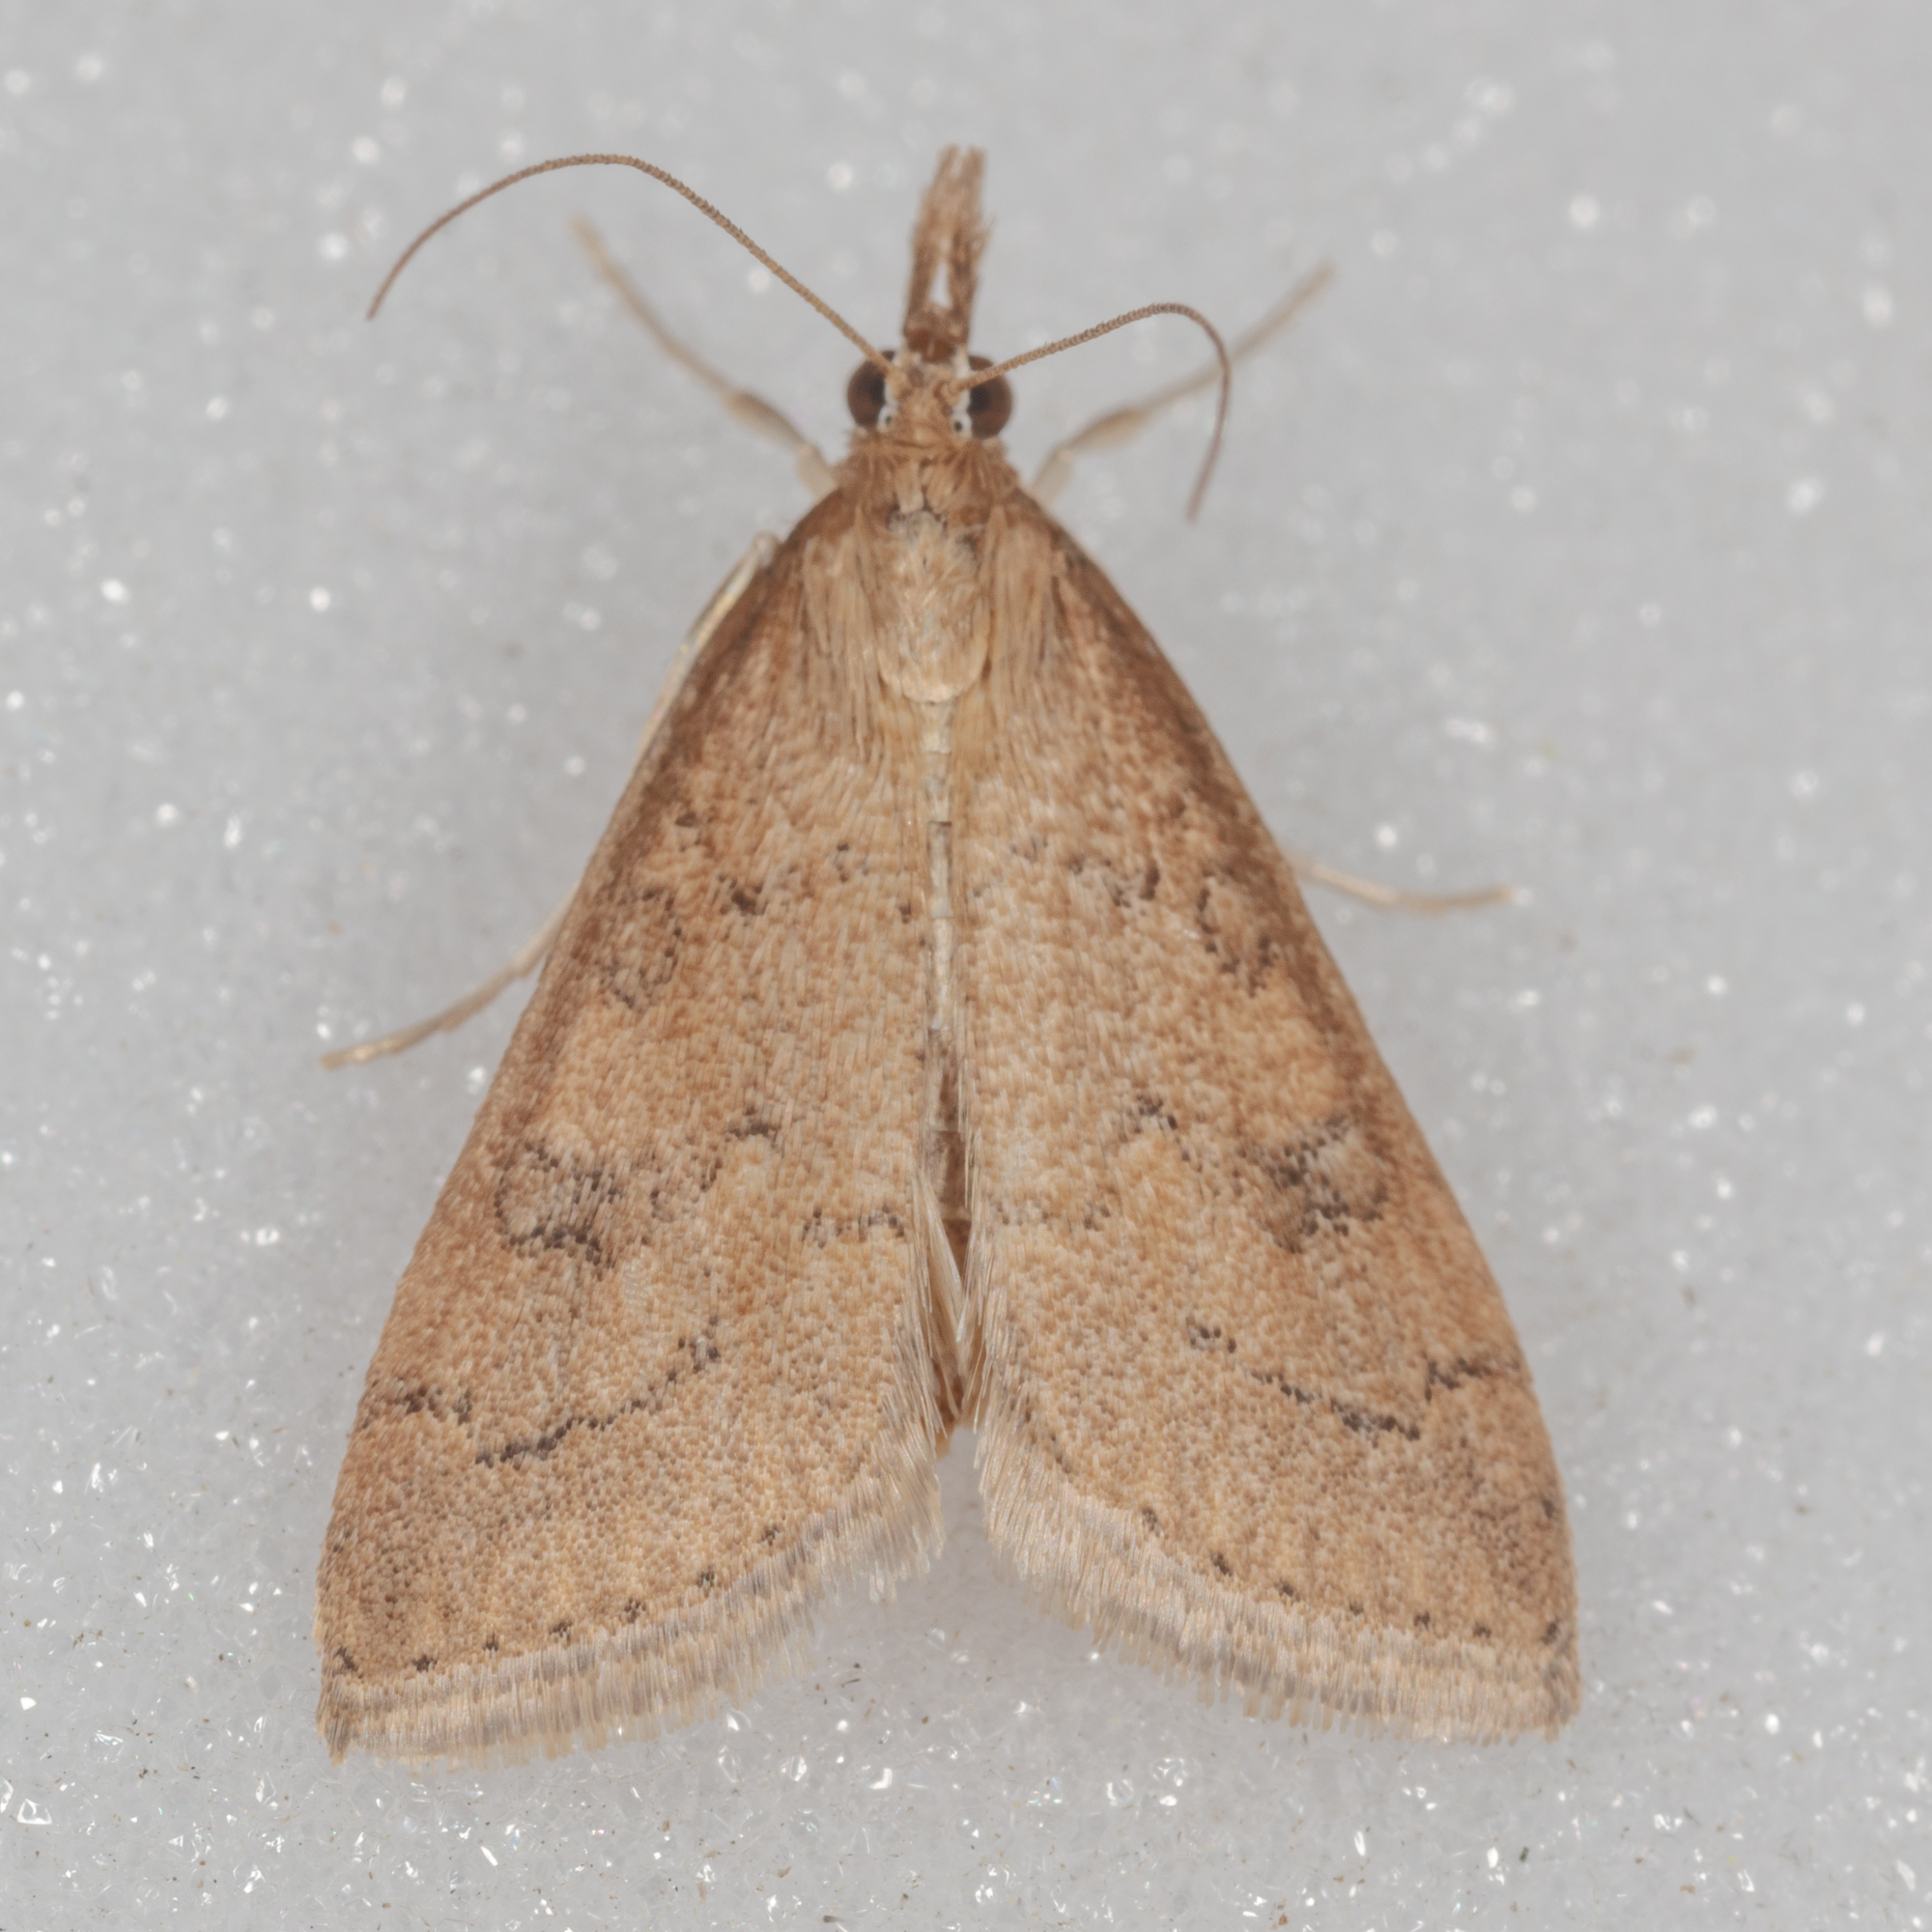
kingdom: Animalia
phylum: Arthropoda
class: Insecta
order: Lepidoptera
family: Crambidae
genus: Udea
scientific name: Udea rubigalis
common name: Celery leaftier moth
